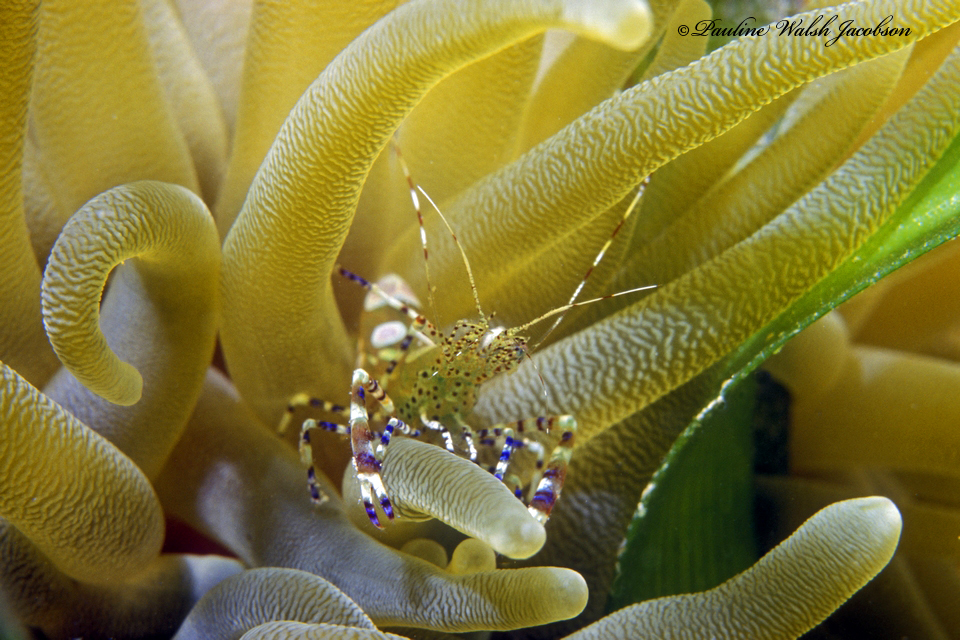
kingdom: Animalia
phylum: Arthropoda
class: Malacostraca
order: Decapoda
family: Palaemonidae
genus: Periclimenes
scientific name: Periclimenes yucatanicus
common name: Spotted cleaning shrimp
